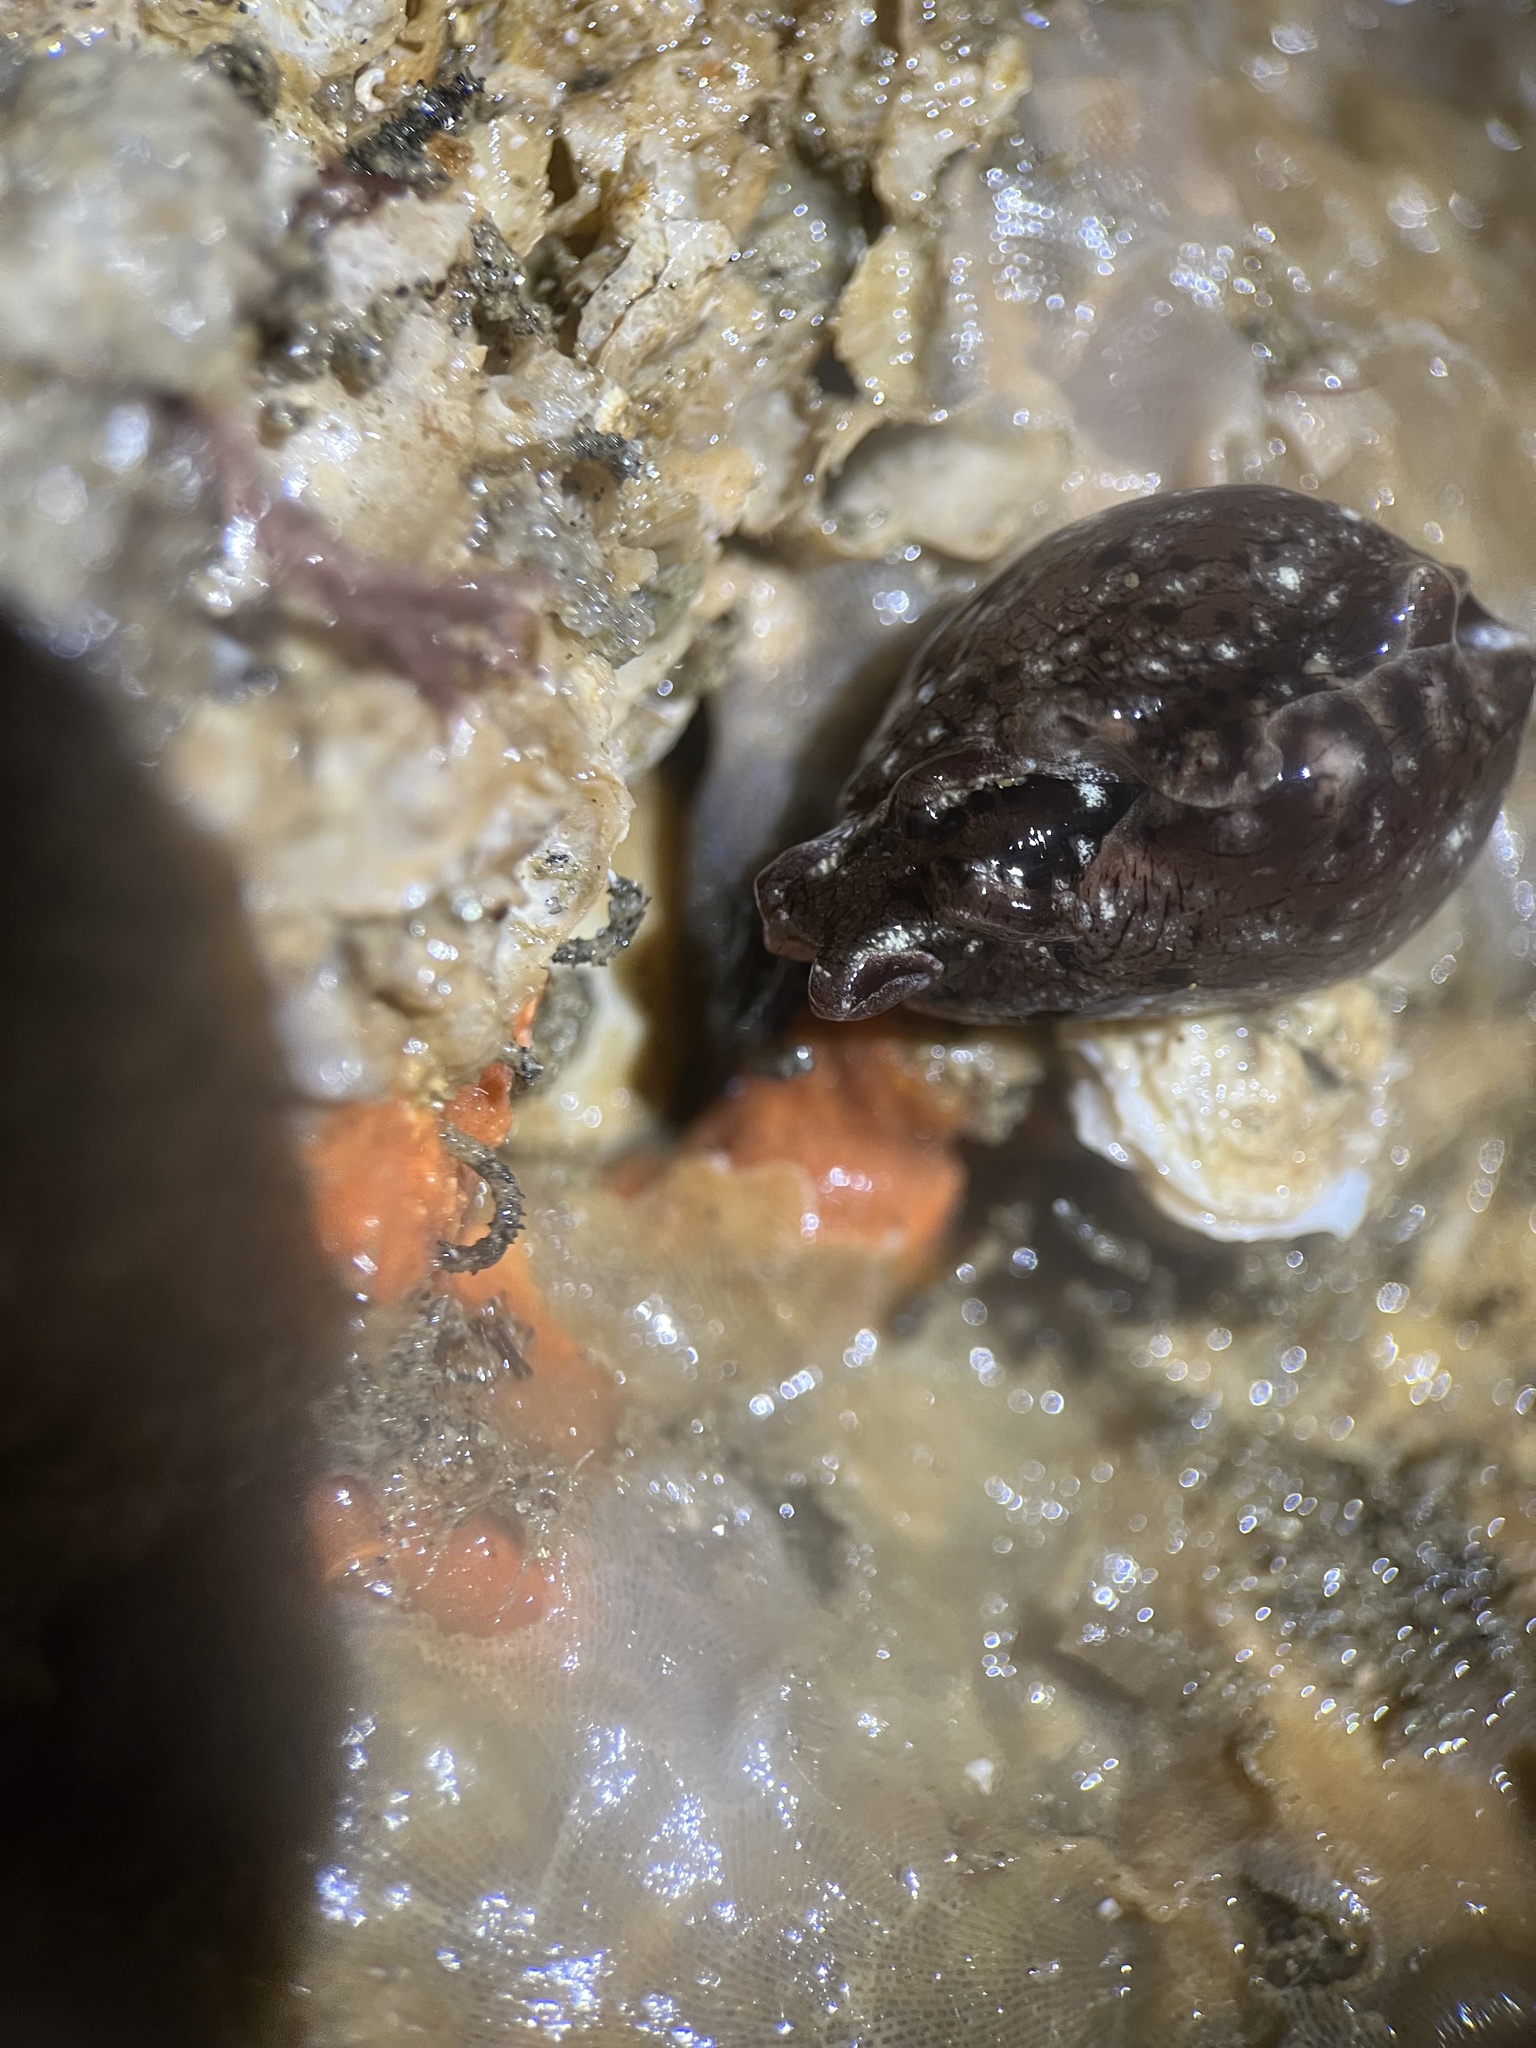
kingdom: Animalia
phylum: Mollusca
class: Gastropoda
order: Aplysiida
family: Aplysiidae
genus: Aplysia
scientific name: Aplysia californica
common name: California seahare
